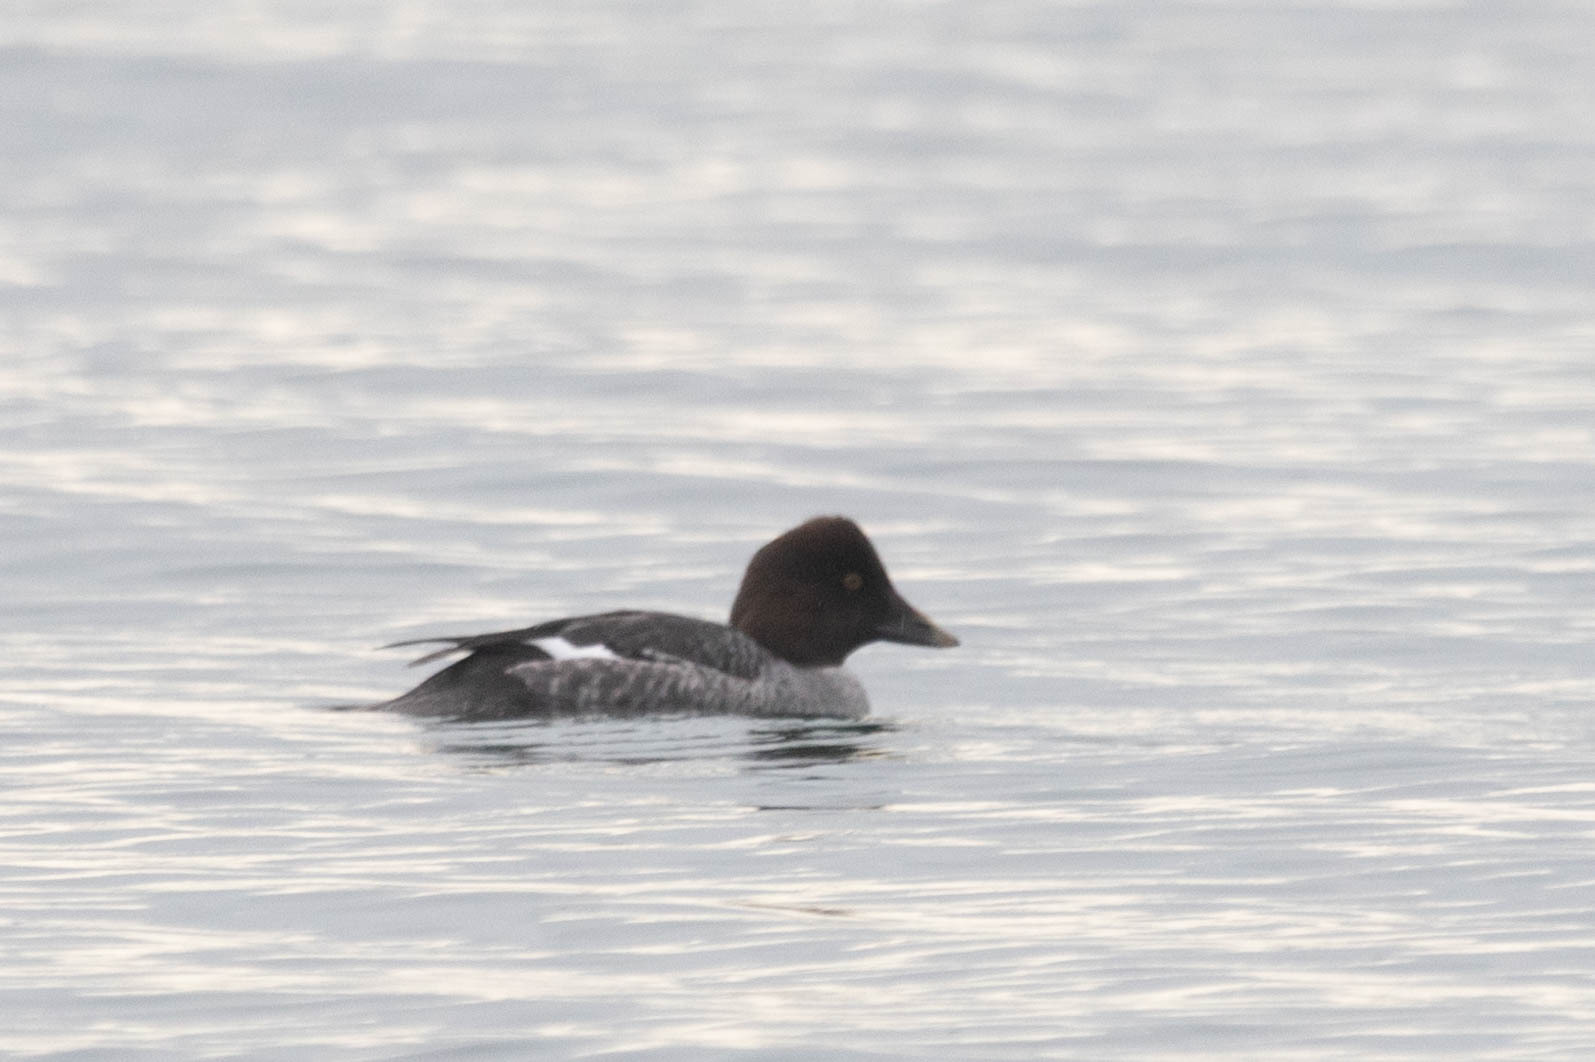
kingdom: Animalia
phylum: Chordata
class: Aves
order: Anseriformes
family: Anatidae
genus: Bucephala
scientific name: Bucephala clangula
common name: Common goldeneye
